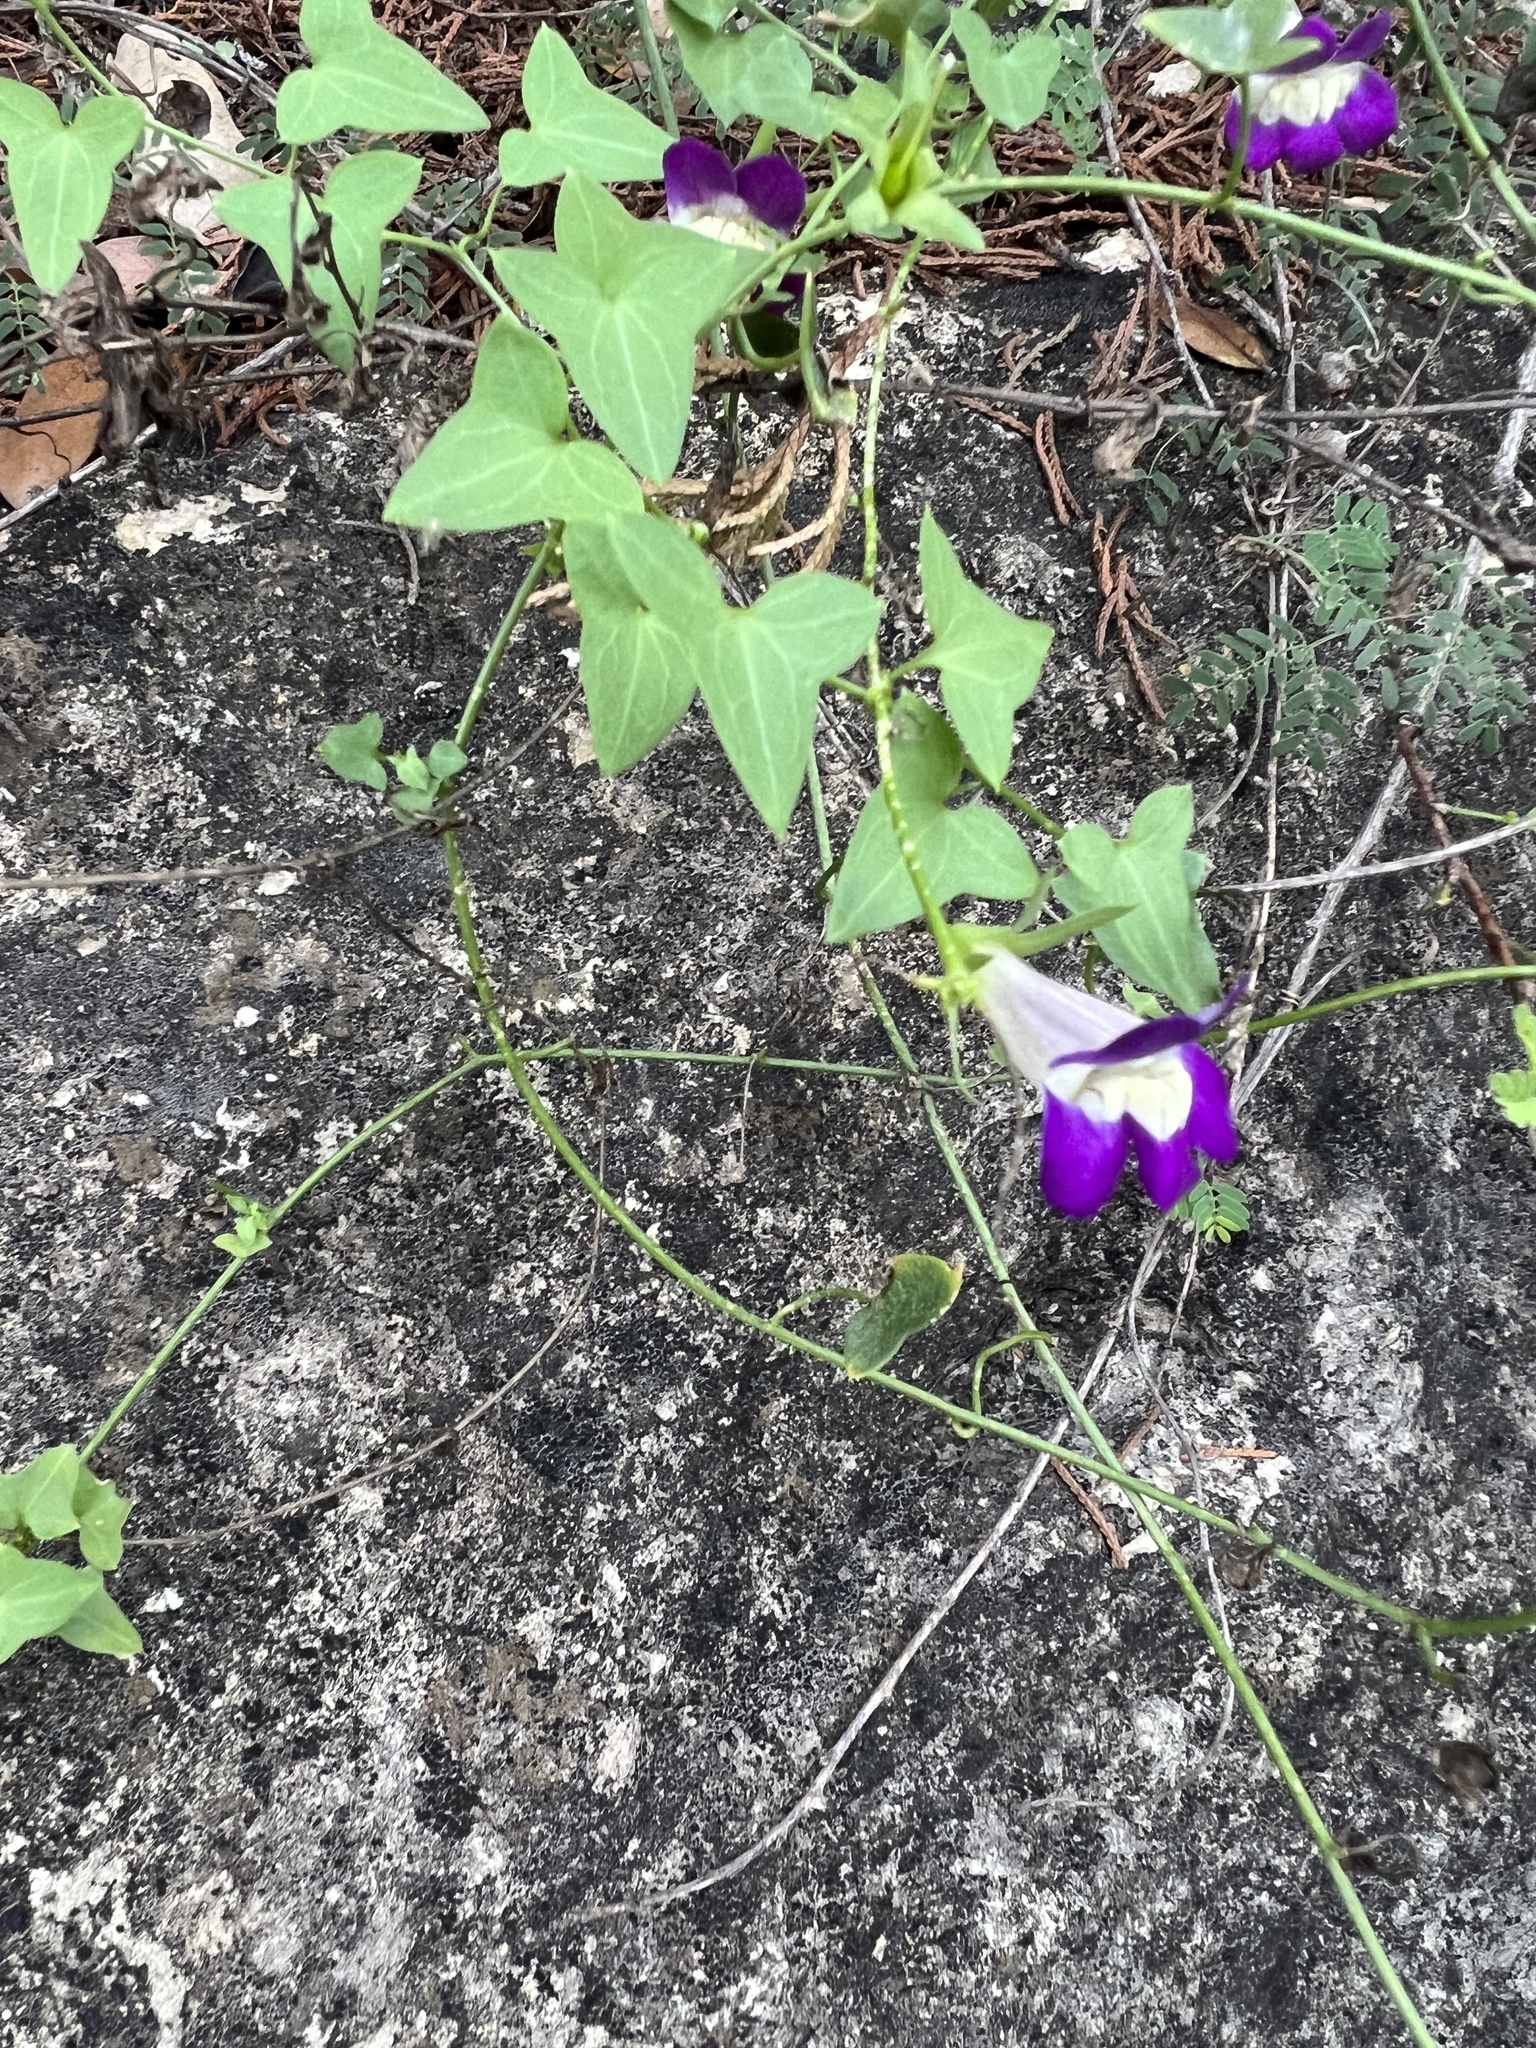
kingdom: Plantae
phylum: Tracheophyta
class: Magnoliopsida
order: Lamiales
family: Plantaginaceae
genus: Maurandella
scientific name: Maurandella antirrhiniflora
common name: Violet twining-snapdragon
